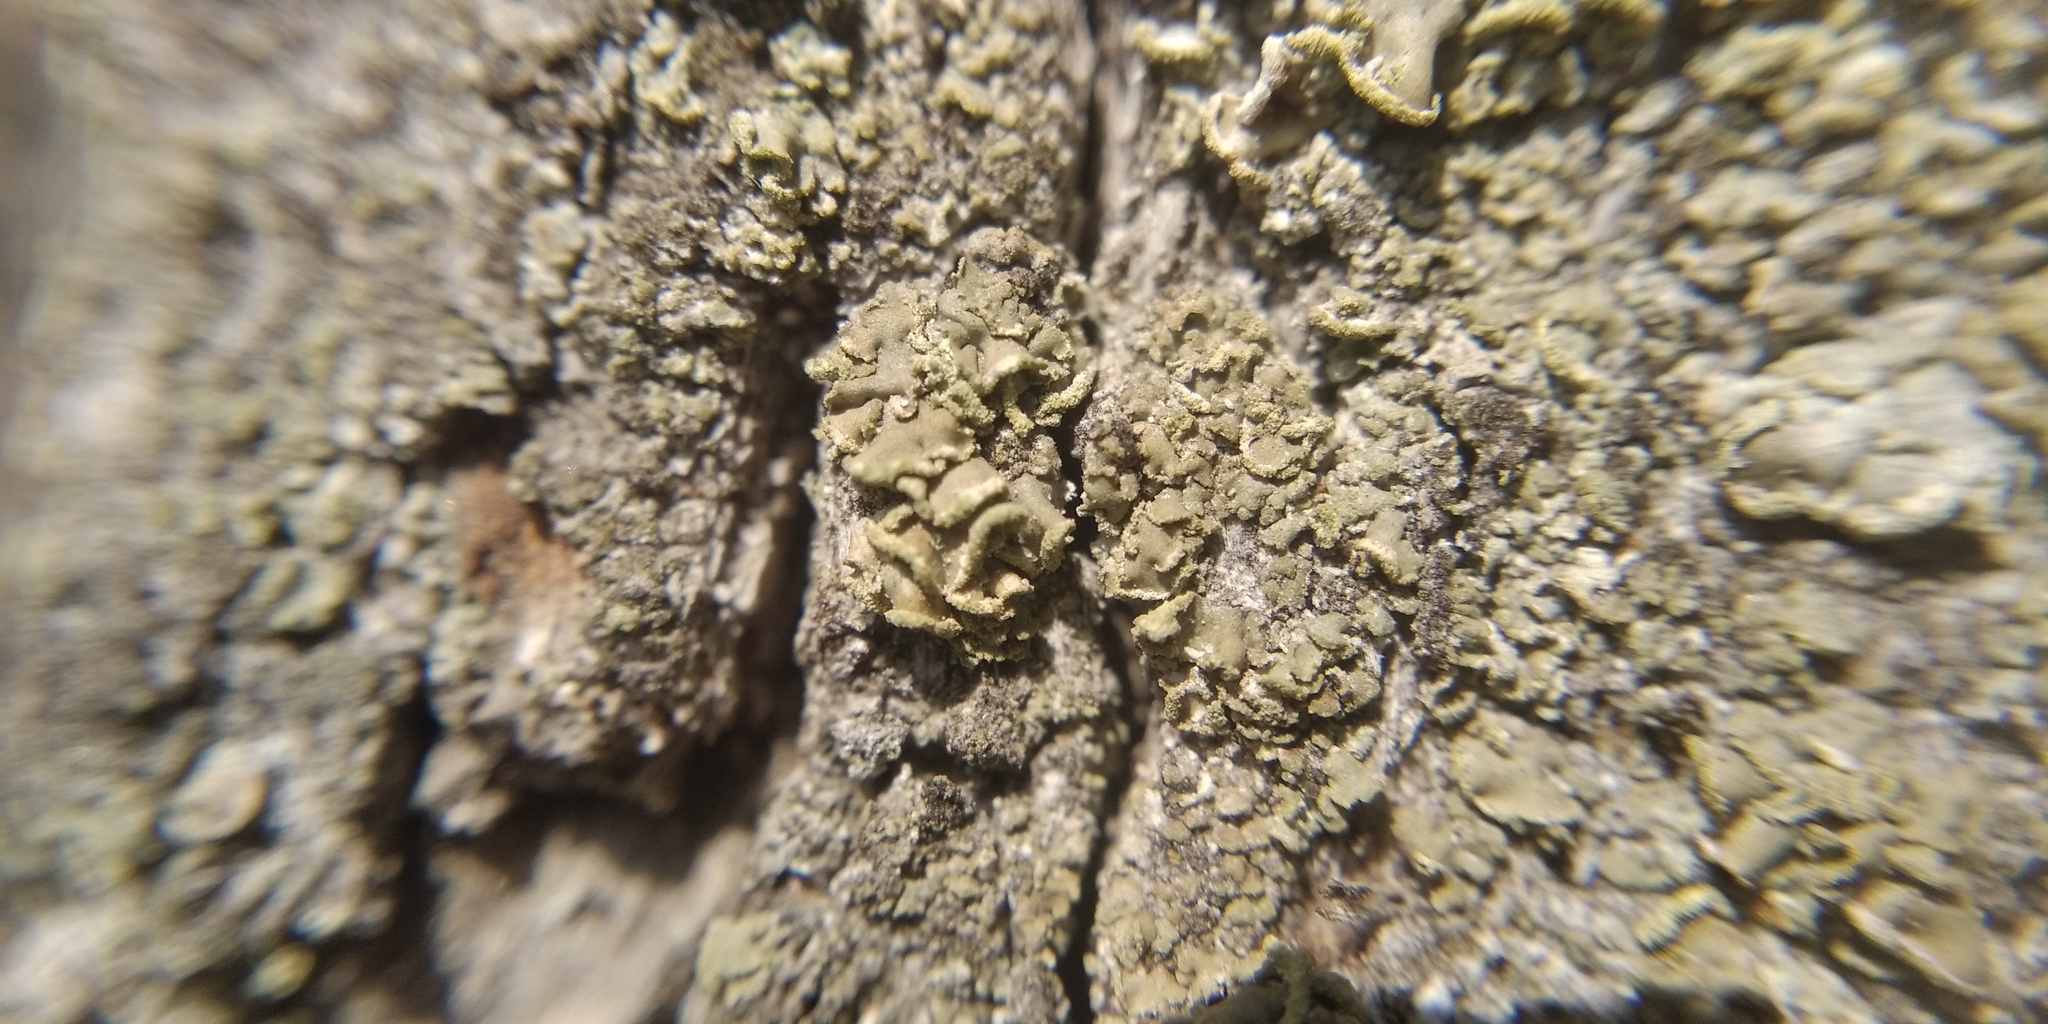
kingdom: Fungi
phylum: Ascomycota
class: Lecanoromycetes
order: Umbilicariales
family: Ophioparmaceae
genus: Hypocenomyce
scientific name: Hypocenomyce scalaris
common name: Common clam lichen
